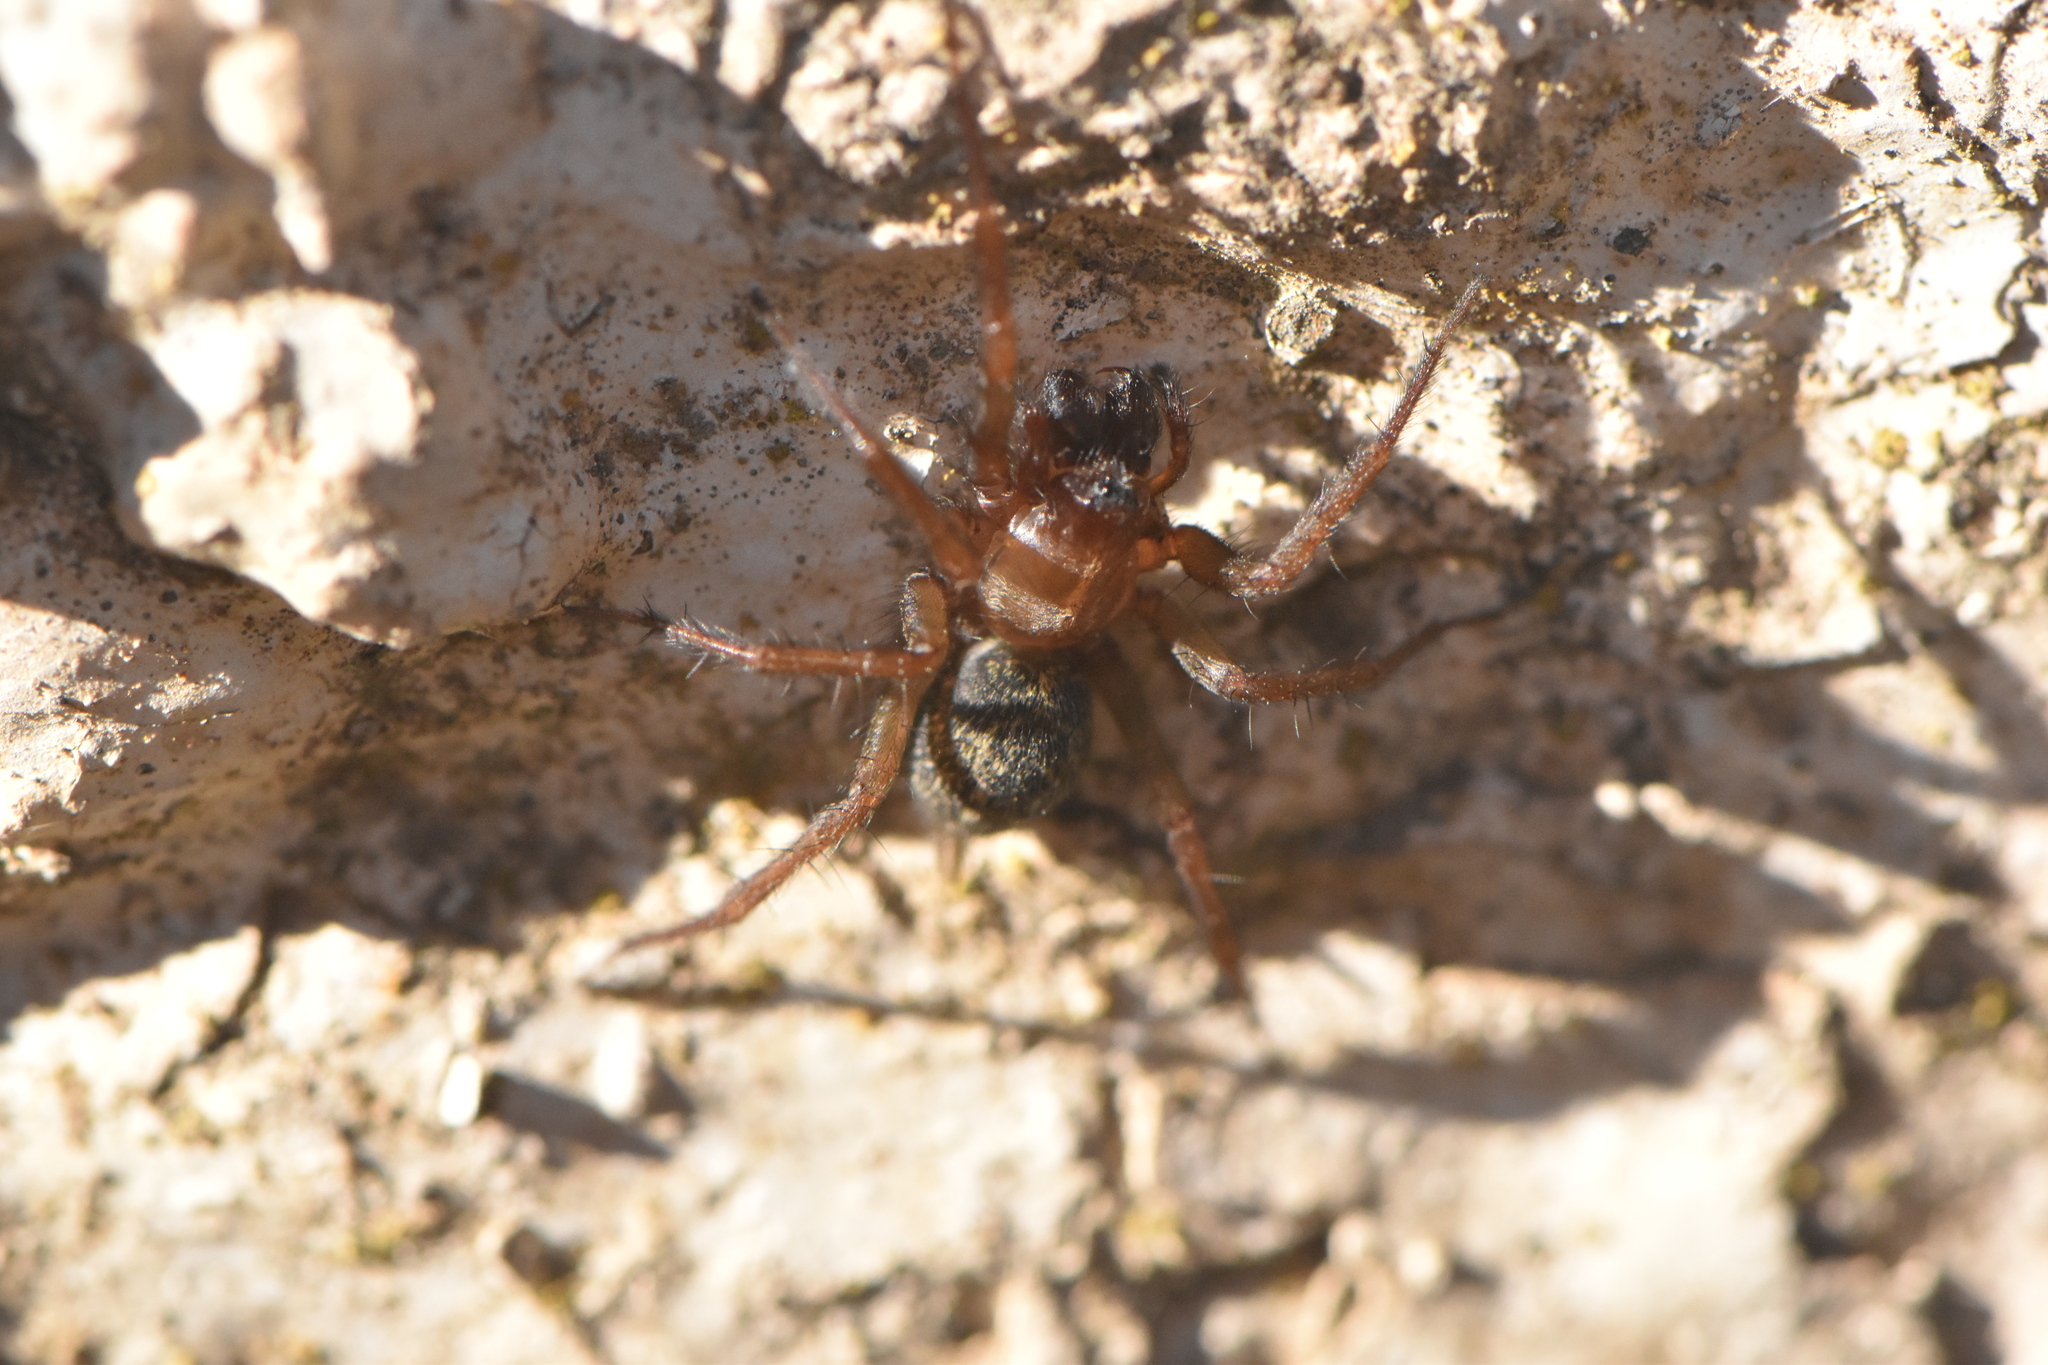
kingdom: Animalia
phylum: Arthropoda
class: Arachnida
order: Araneae
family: Agelenidae
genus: Lycosoides
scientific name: Lycosoides coarctata
